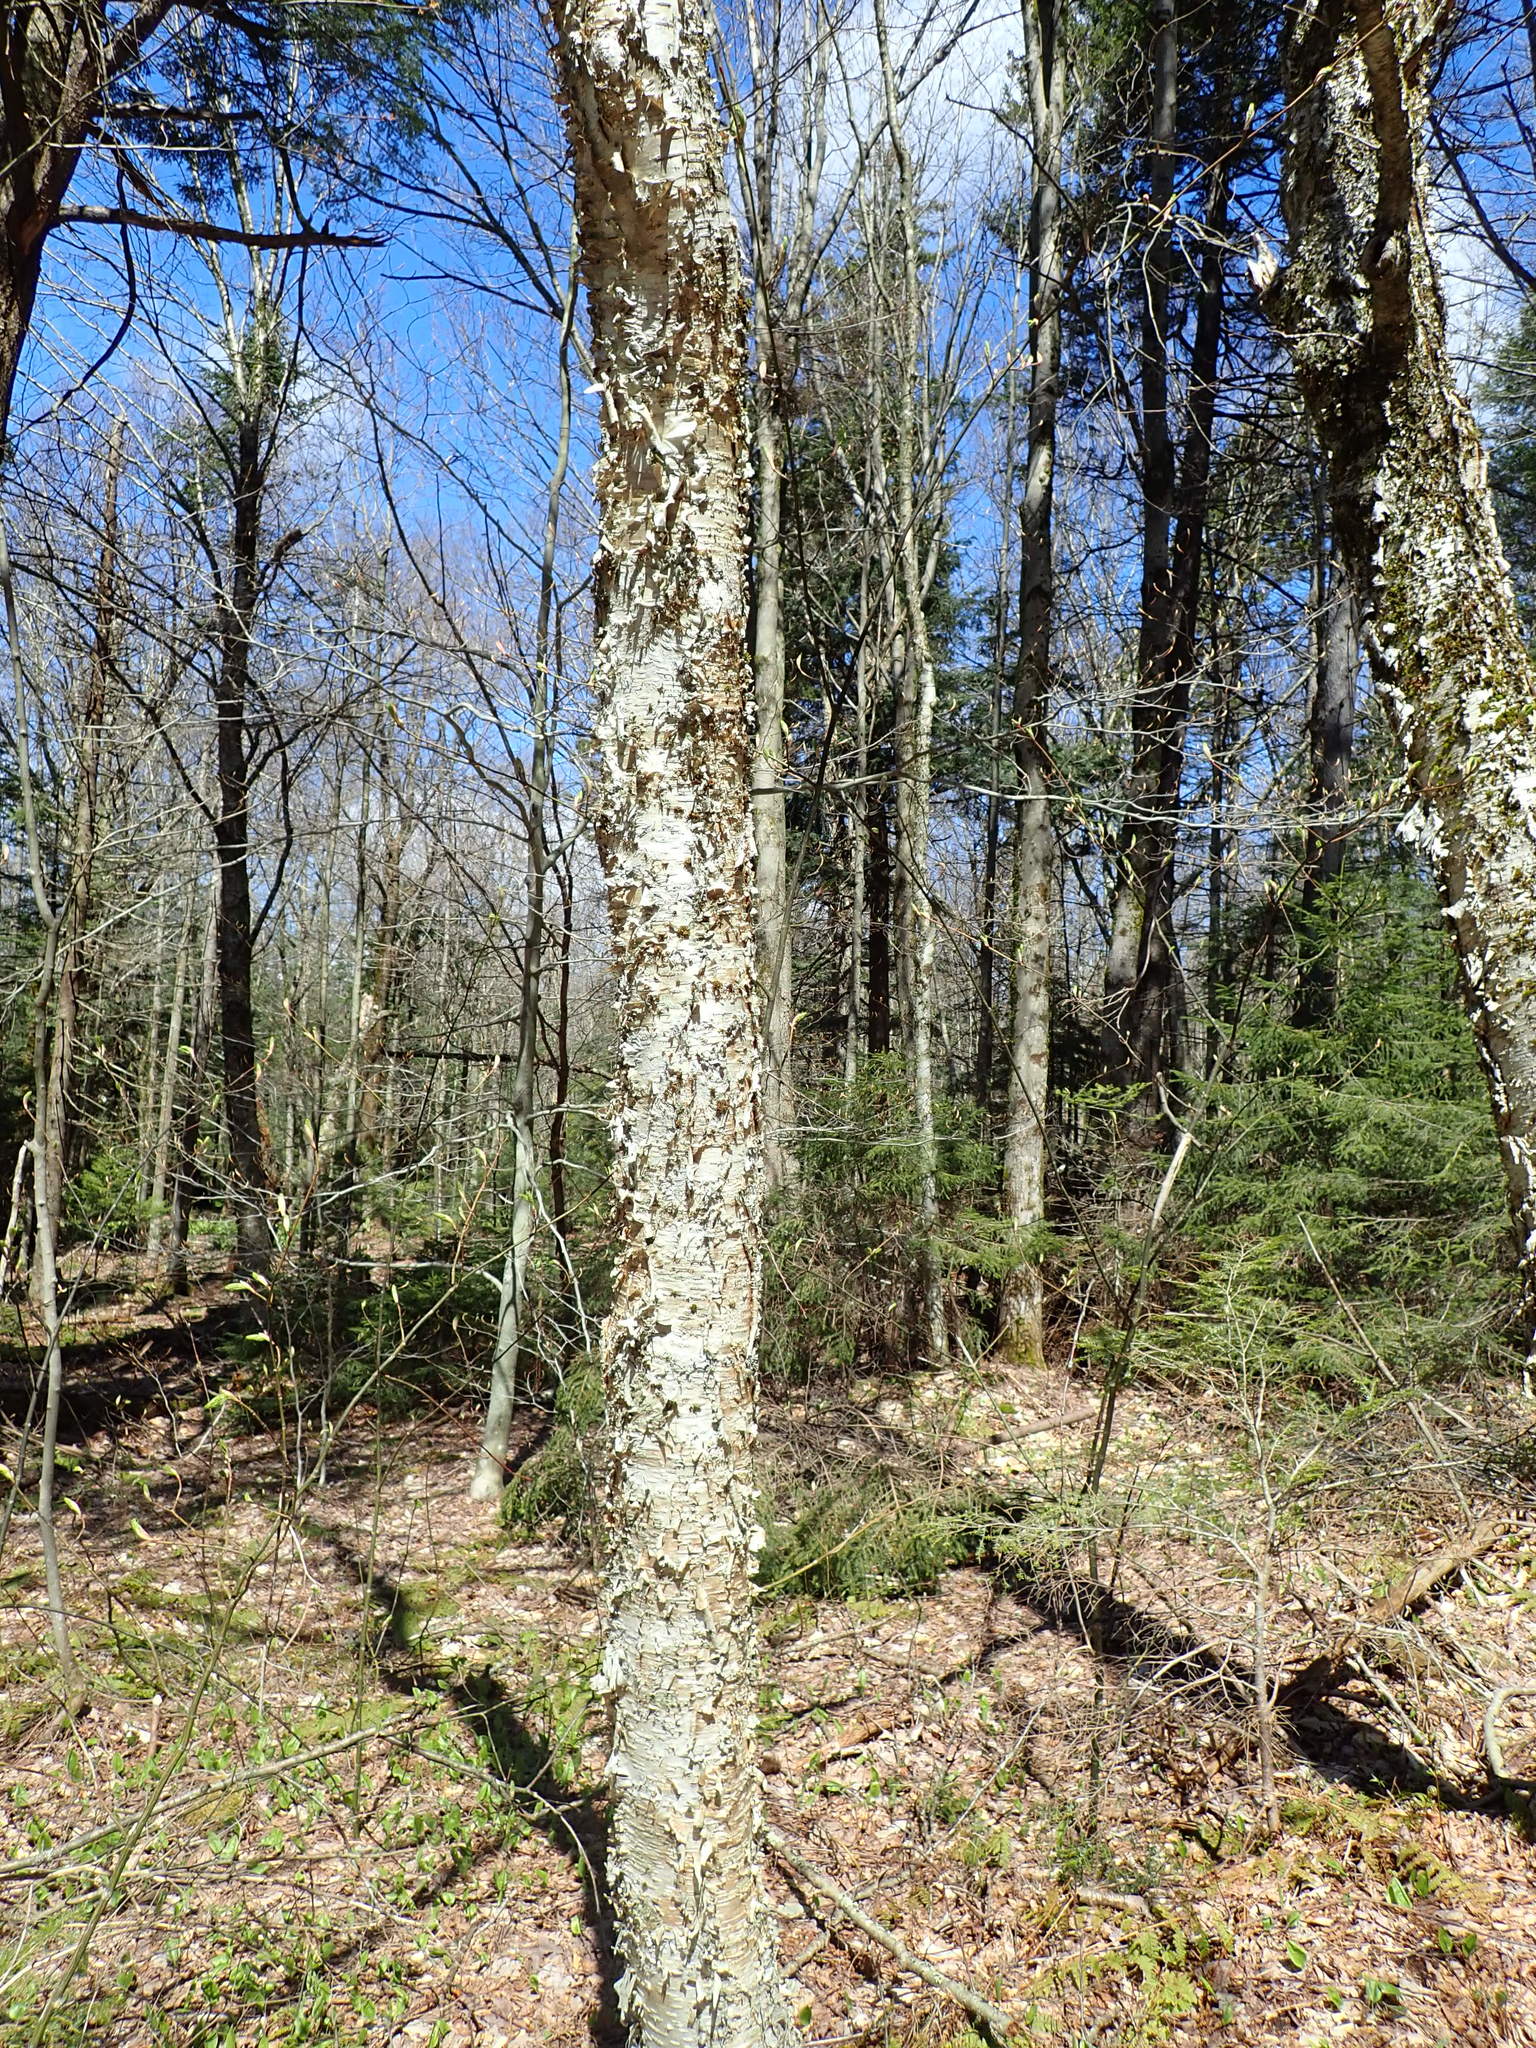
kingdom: Plantae
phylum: Tracheophyta
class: Magnoliopsida
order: Fagales
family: Betulaceae
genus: Betula
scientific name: Betula alleghaniensis
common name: Yellow birch
